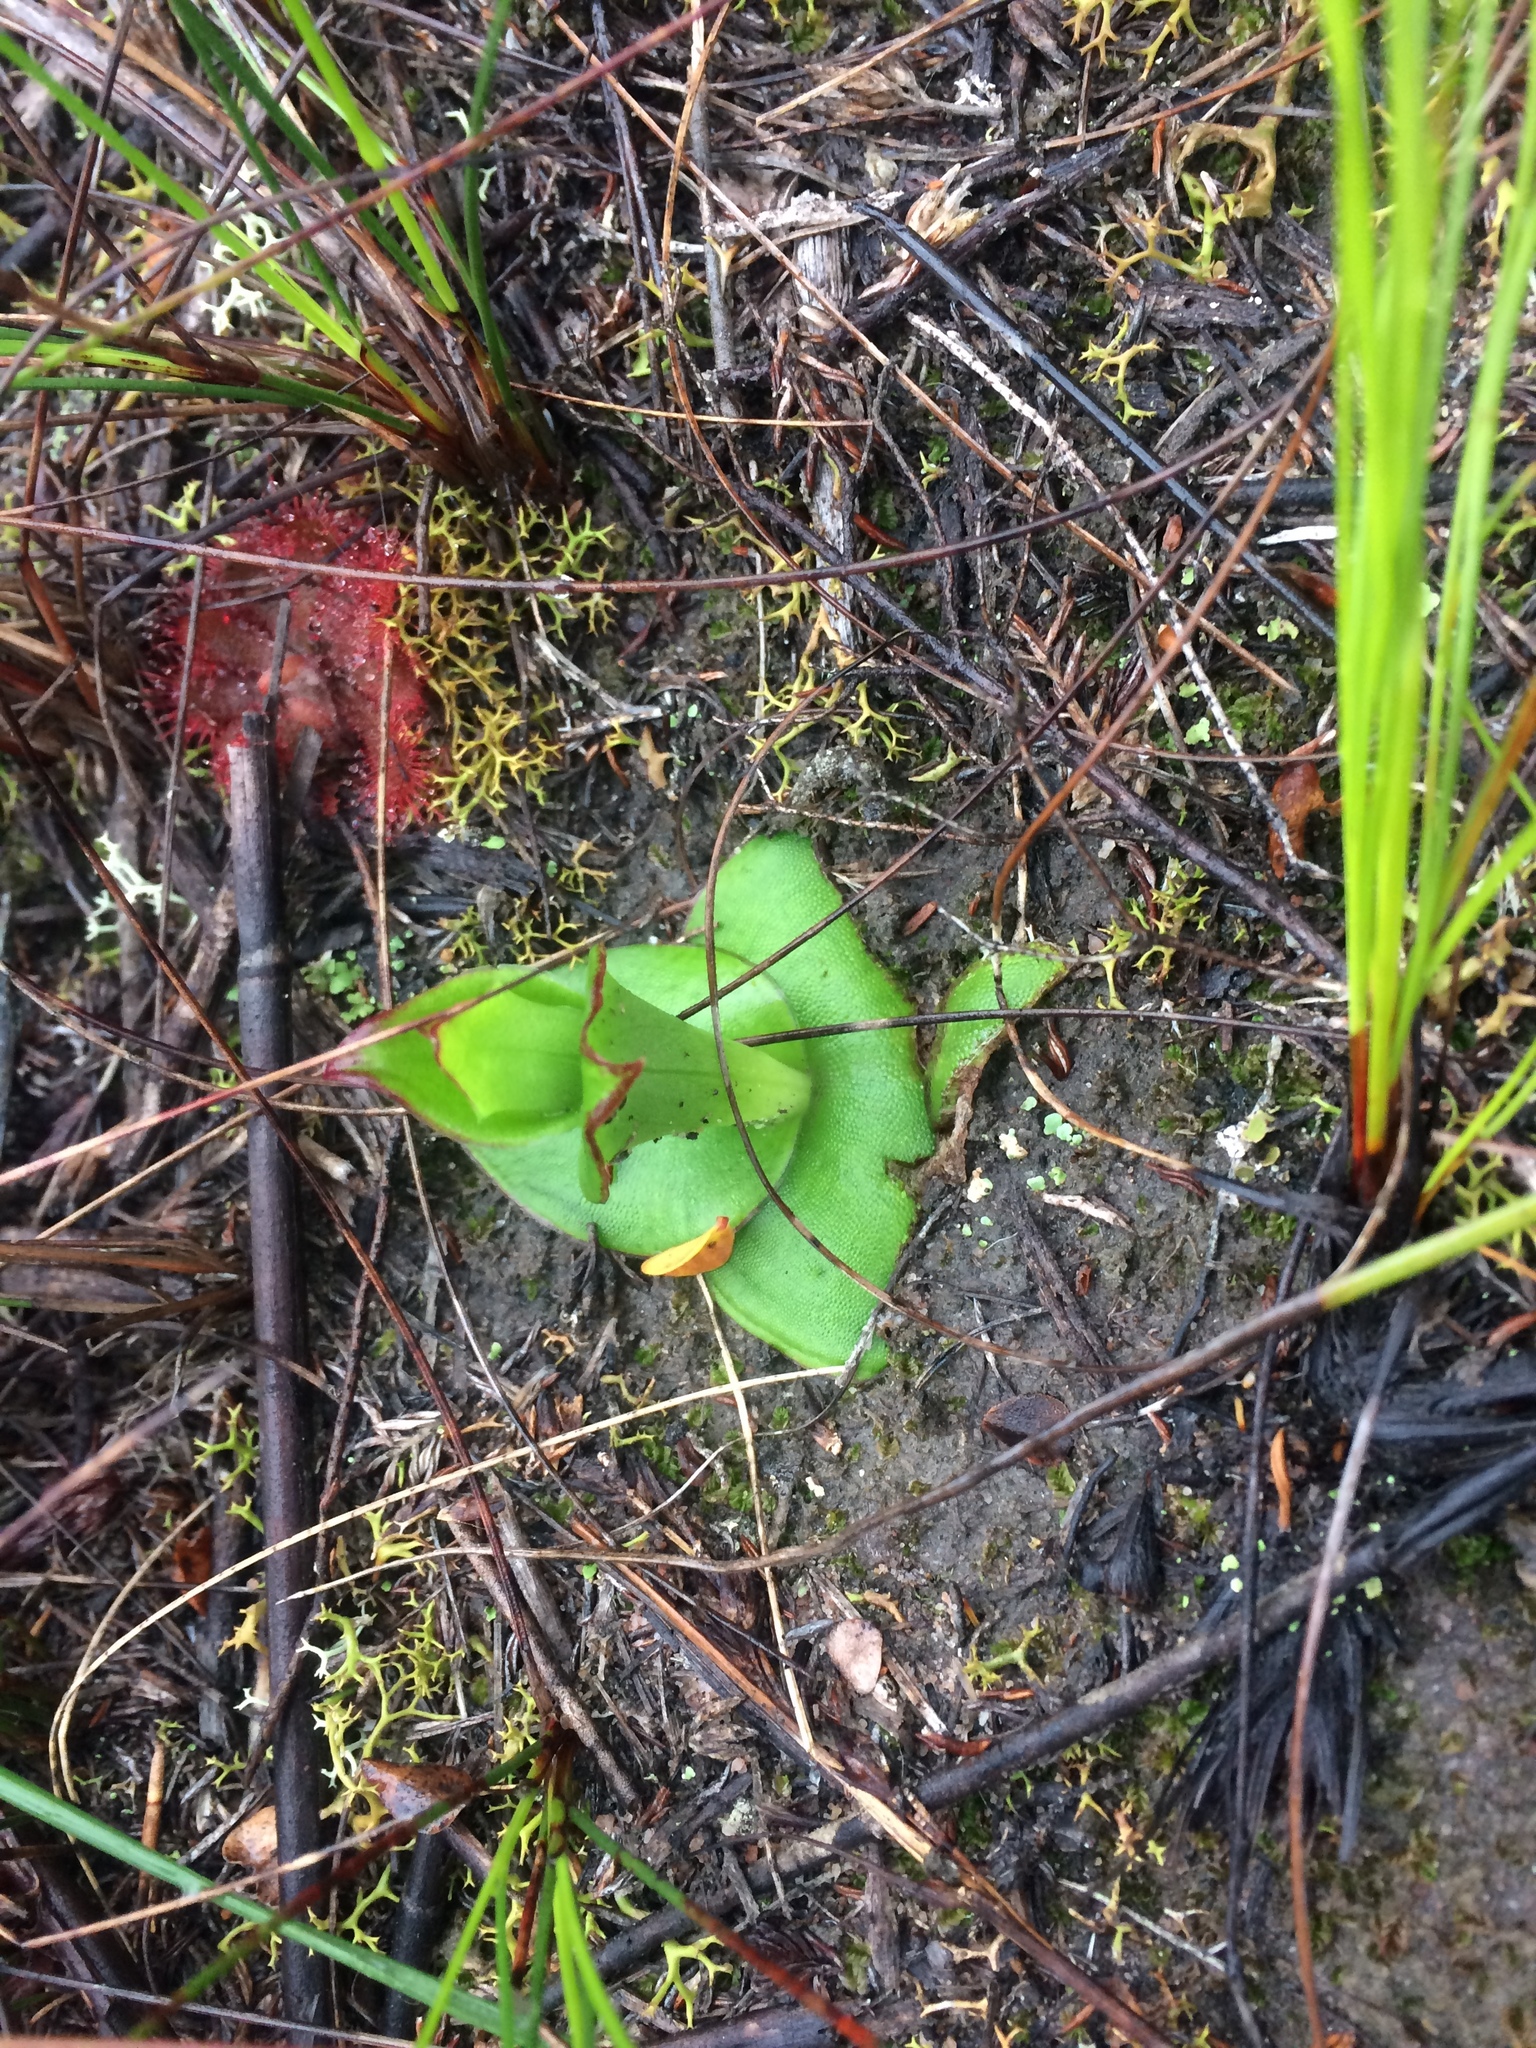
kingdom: Plantae
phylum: Tracheophyta
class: Liliopsida
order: Asparagales
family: Orchidaceae
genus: Satyrium
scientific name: Satyrium acuminatum
